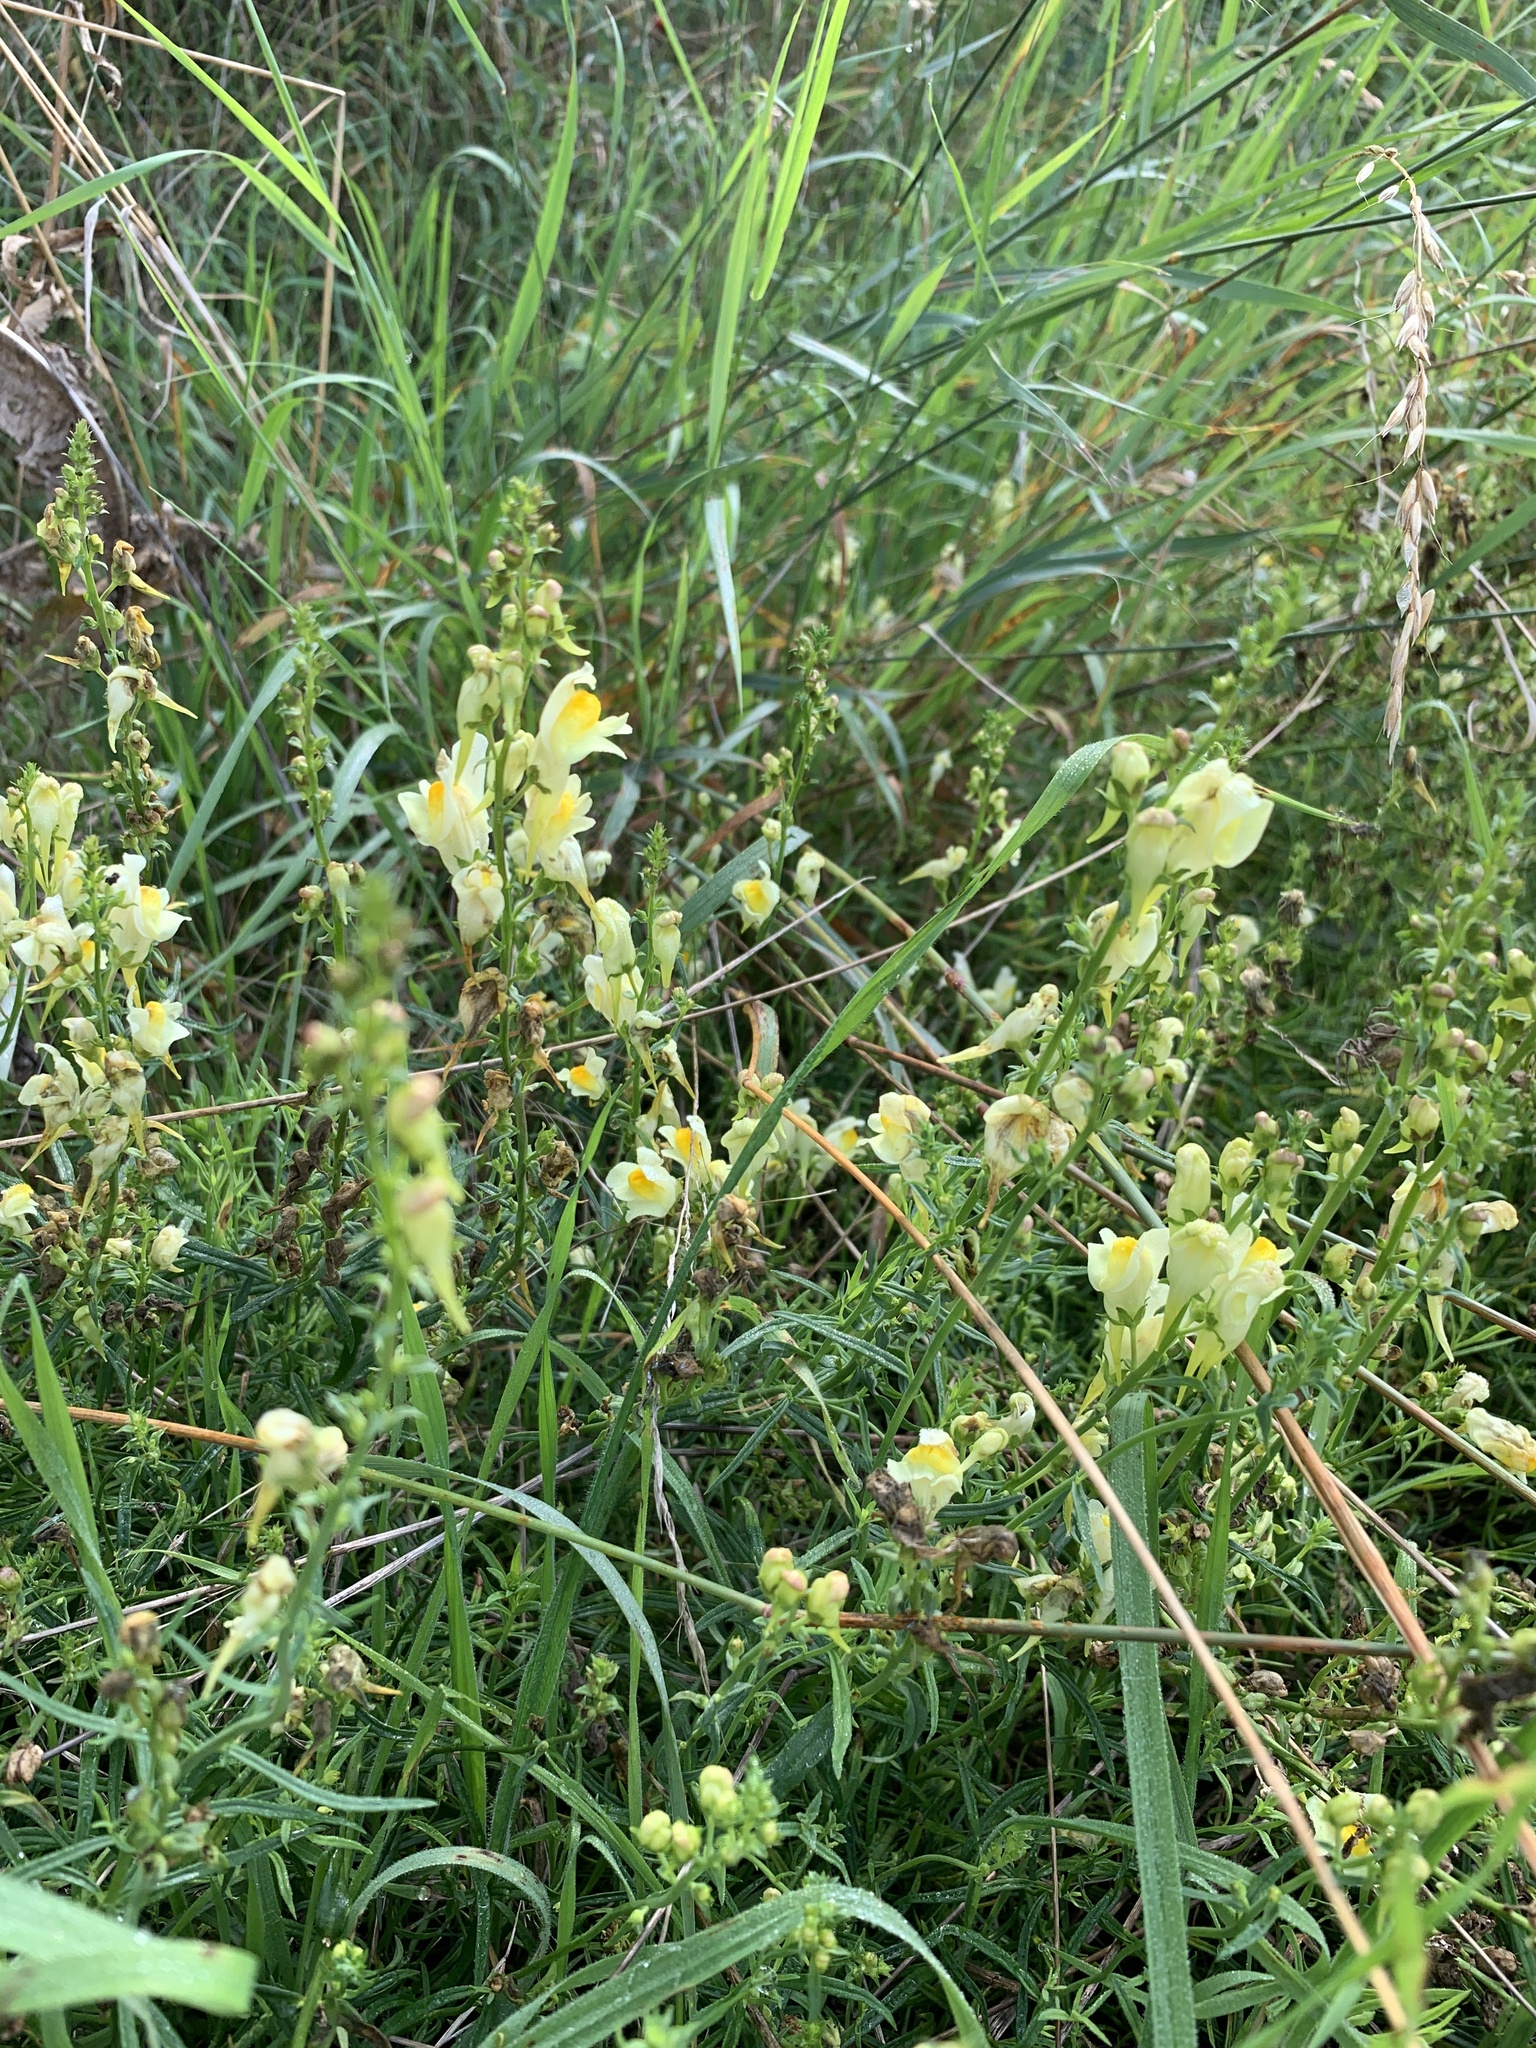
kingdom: Plantae
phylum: Tracheophyta
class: Magnoliopsida
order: Lamiales
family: Plantaginaceae
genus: Linaria
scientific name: Linaria vulgaris
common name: Butter and eggs
